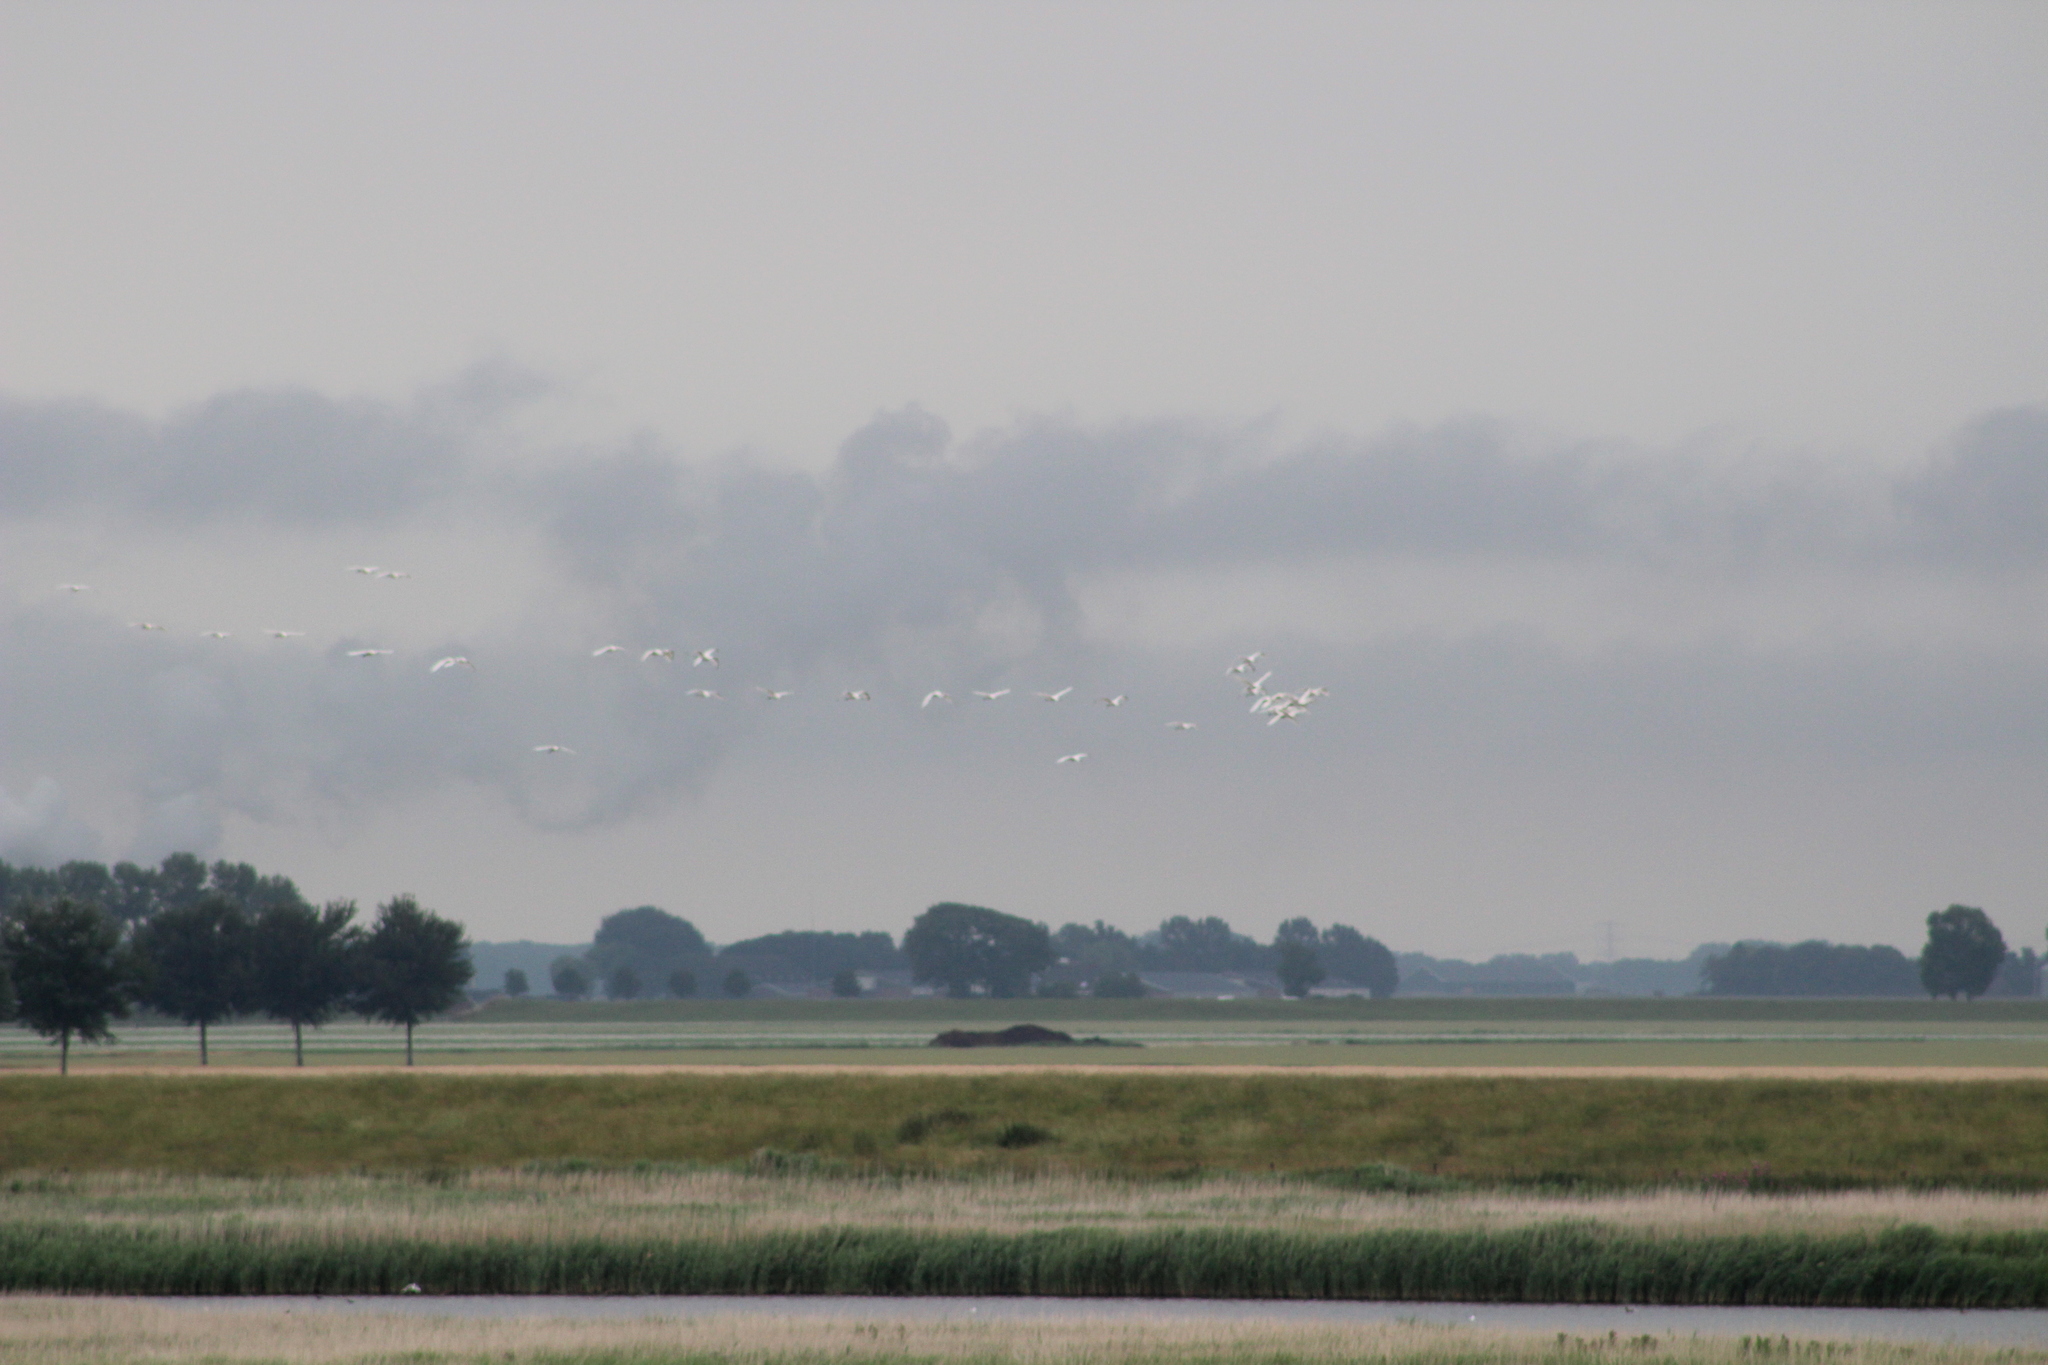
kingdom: Animalia
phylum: Chordata
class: Aves
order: Pelecaniformes
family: Threskiornithidae
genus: Platalea
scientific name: Platalea leucorodia
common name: Eurasian spoonbill
